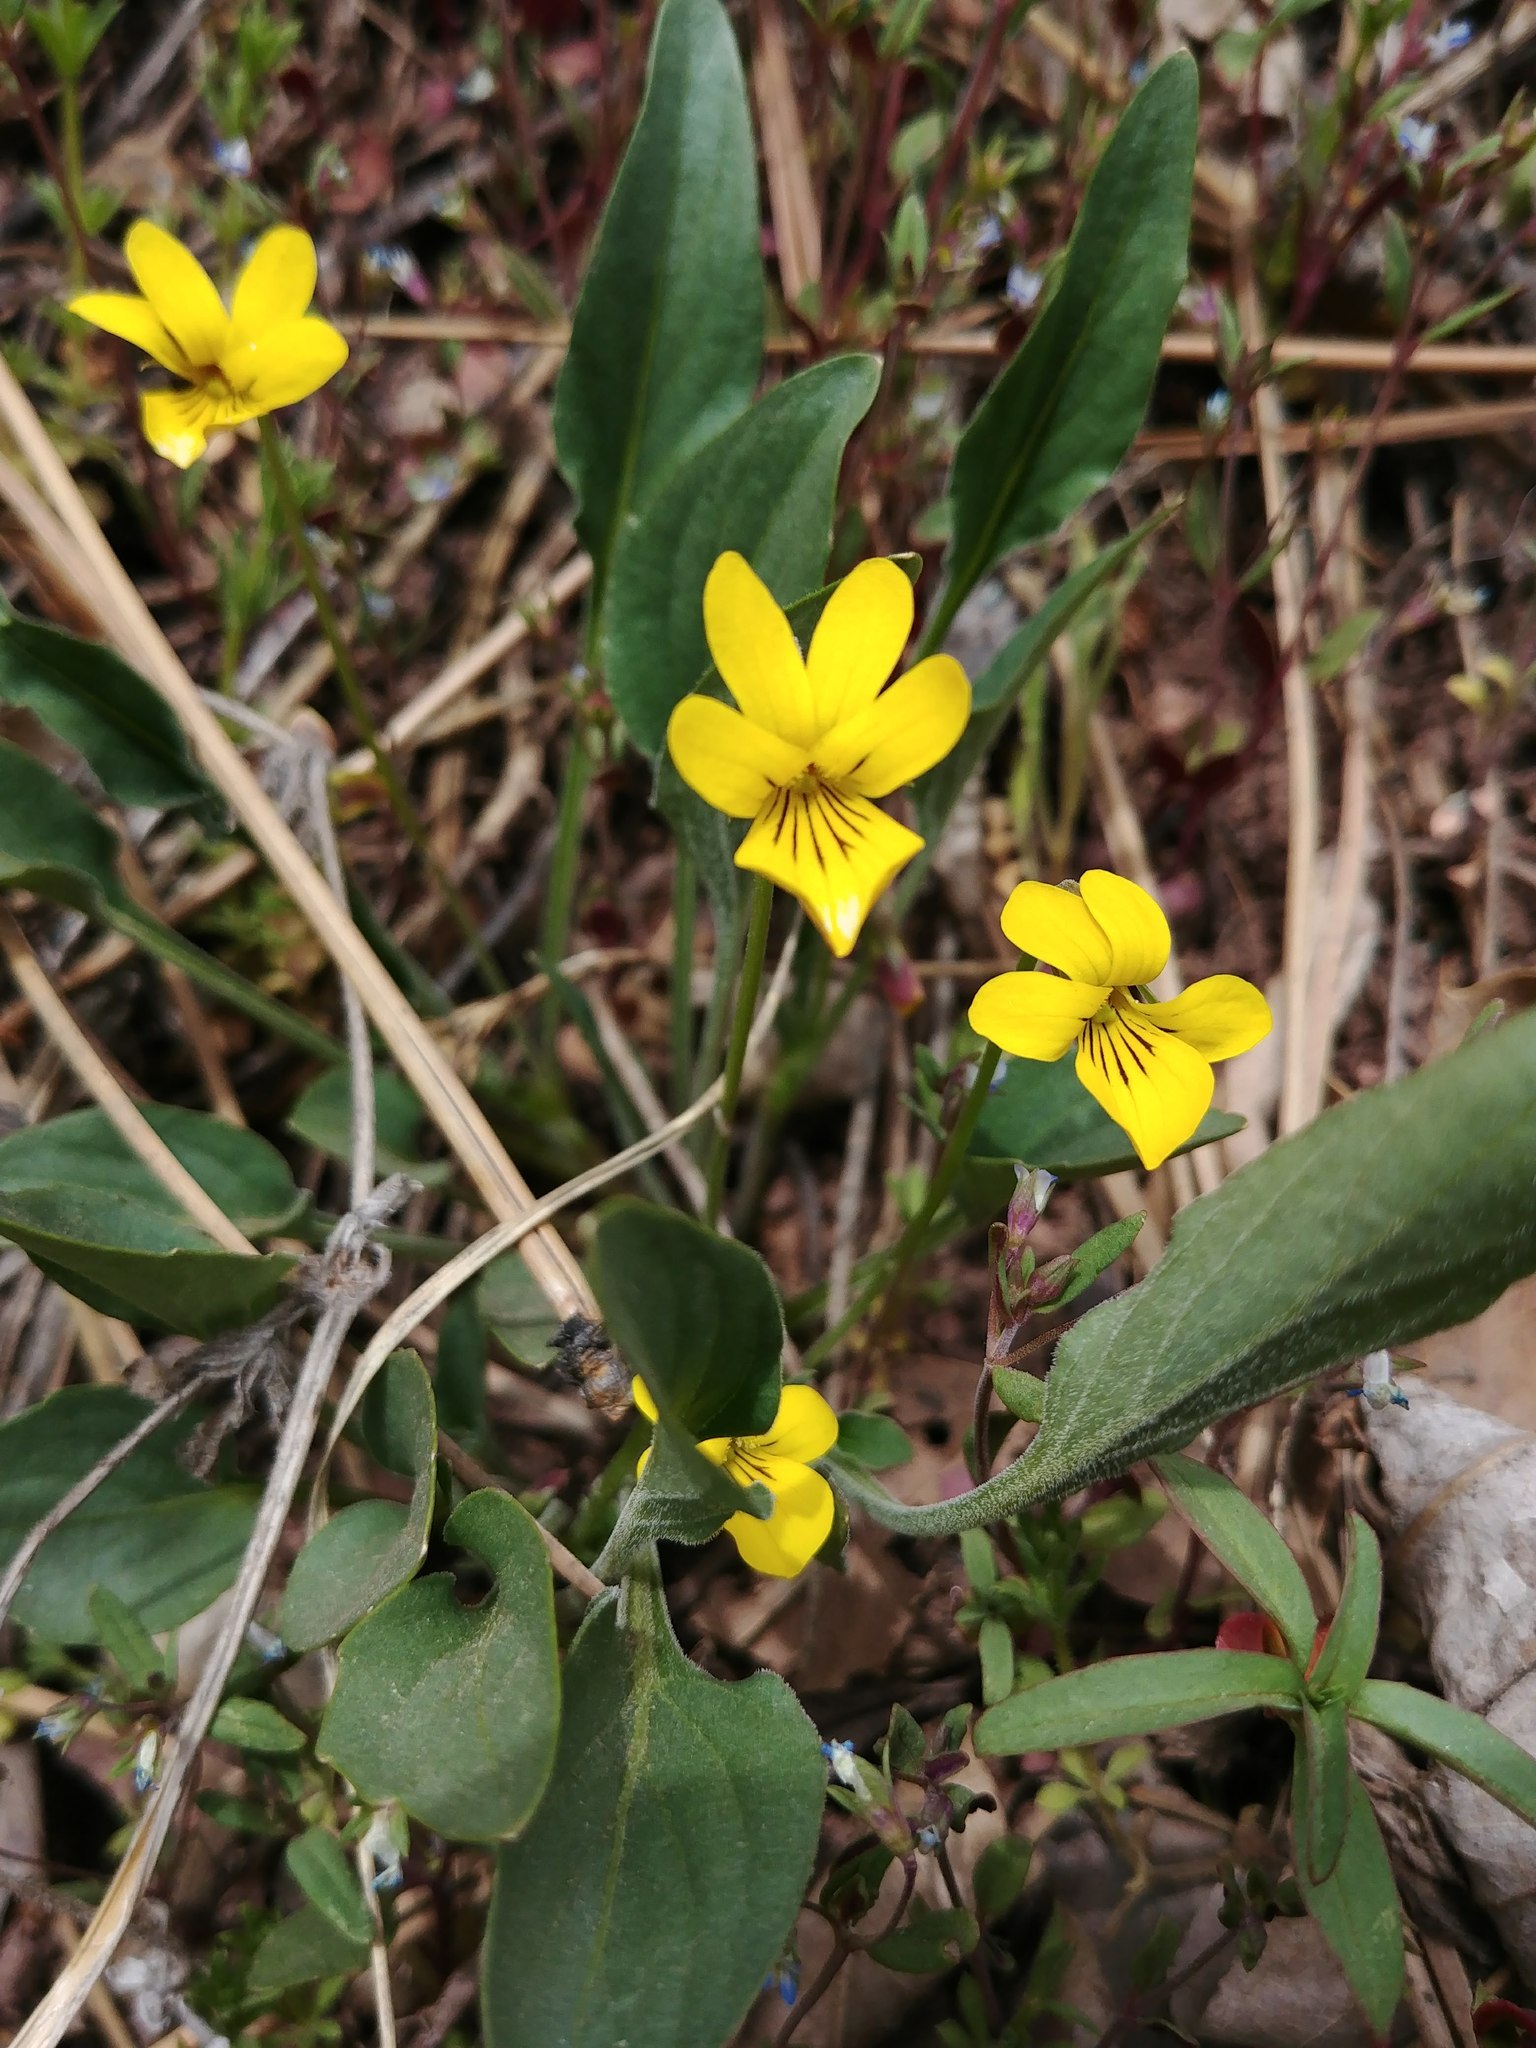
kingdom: Plantae
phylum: Tracheophyta
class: Magnoliopsida
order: Malpighiales
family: Violaceae
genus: Viola
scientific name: Viola nuttallii
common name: Yellow prairie violet
